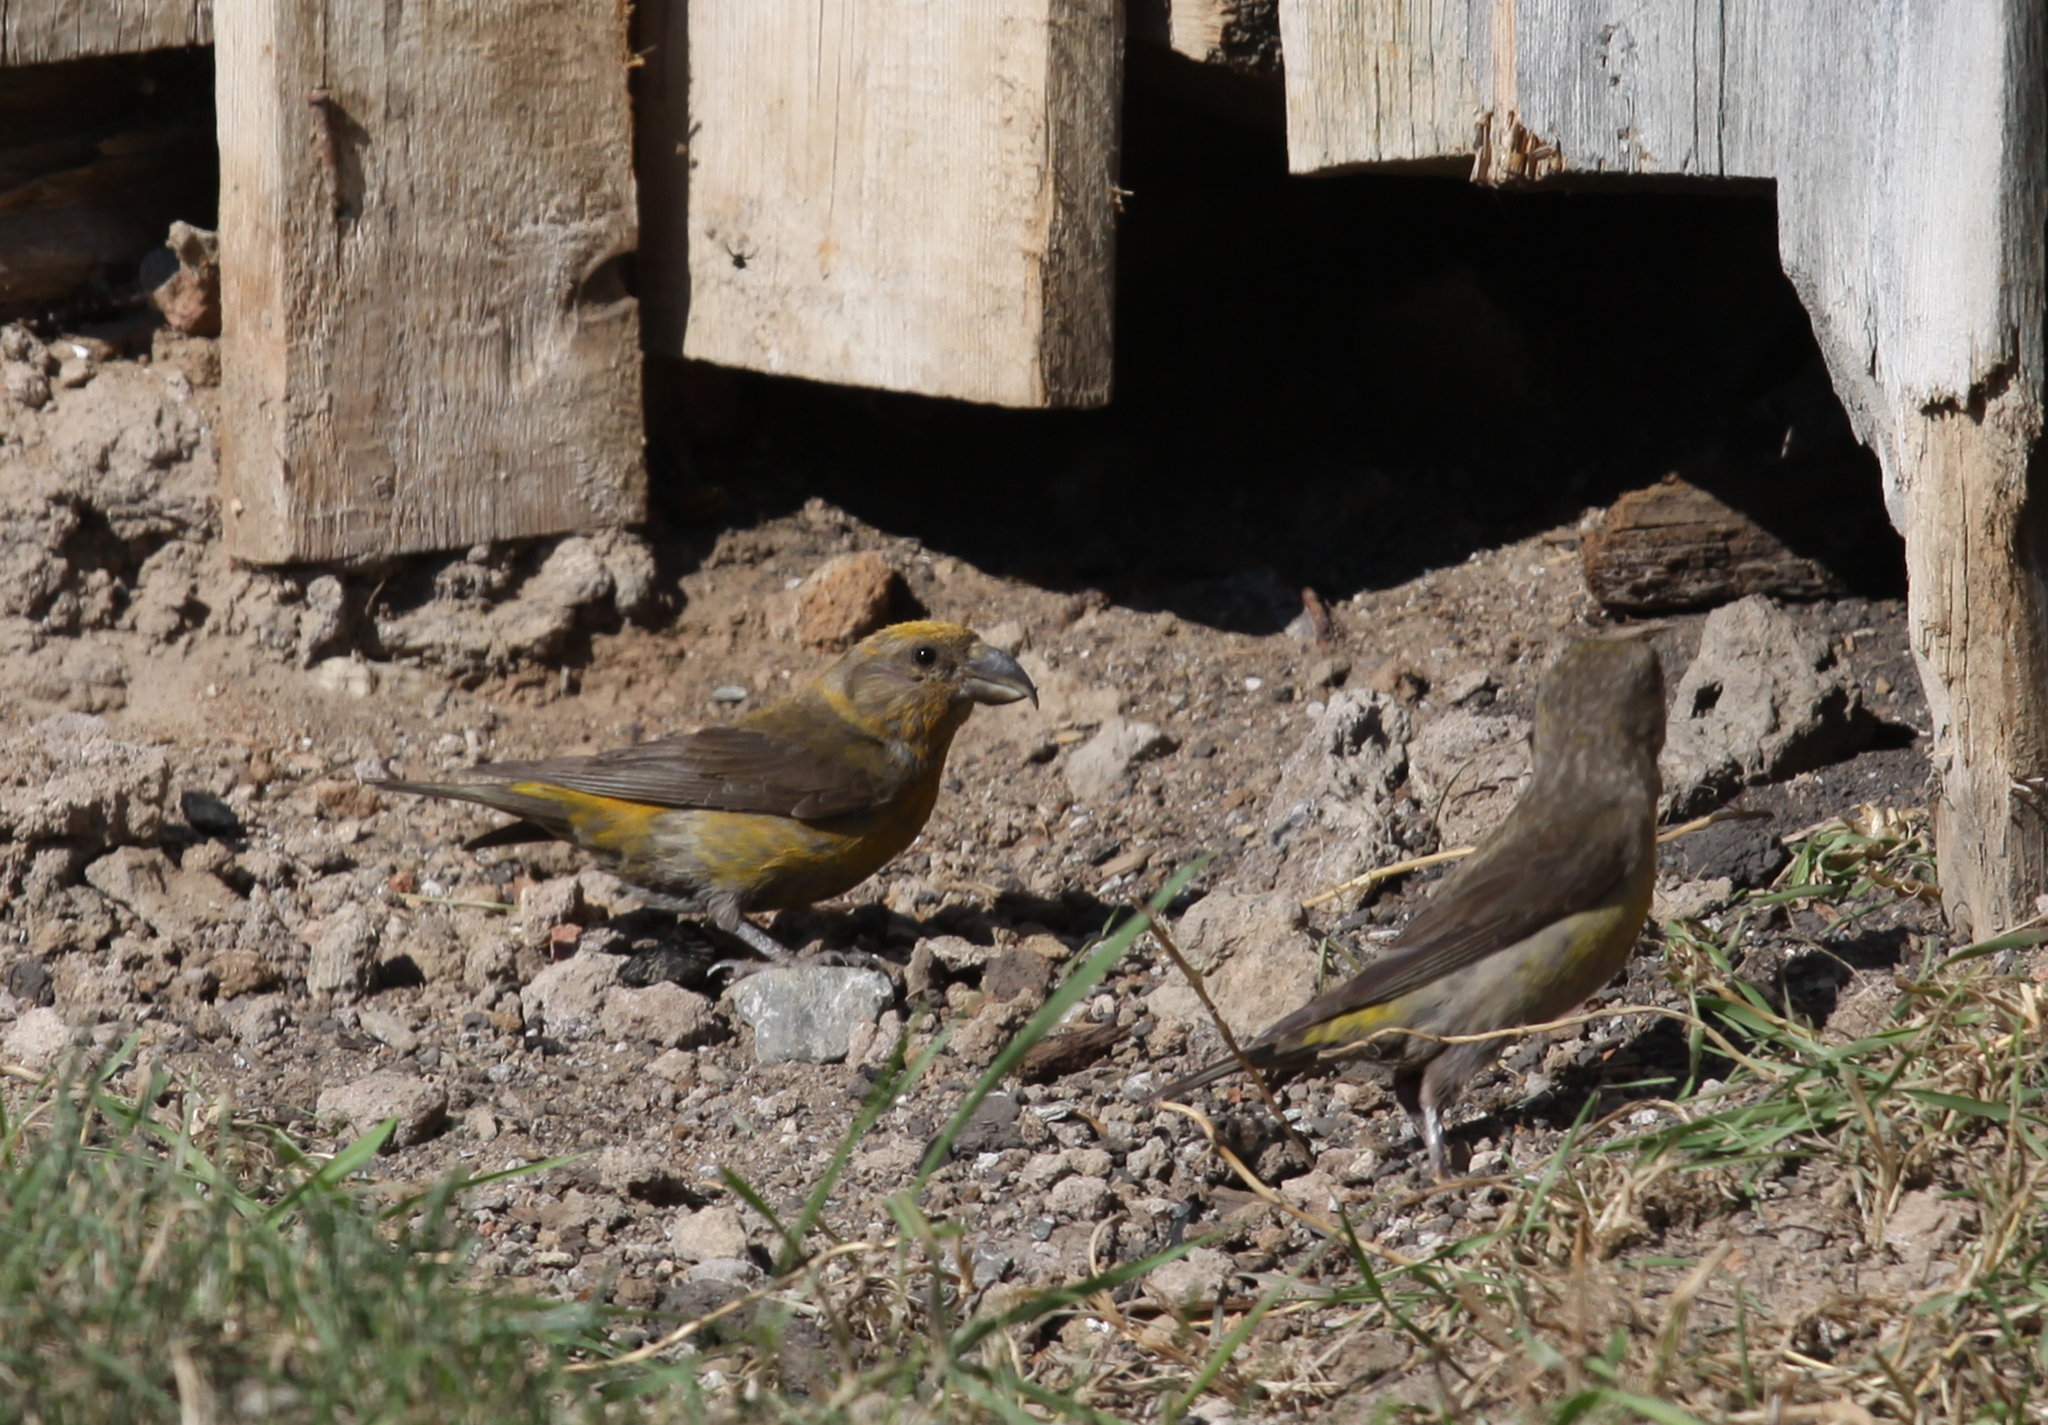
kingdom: Animalia
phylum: Chordata
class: Aves
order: Passeriformes
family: Fringillidae
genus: Loxia
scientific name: Loxia curvirostra
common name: Red crossbill
